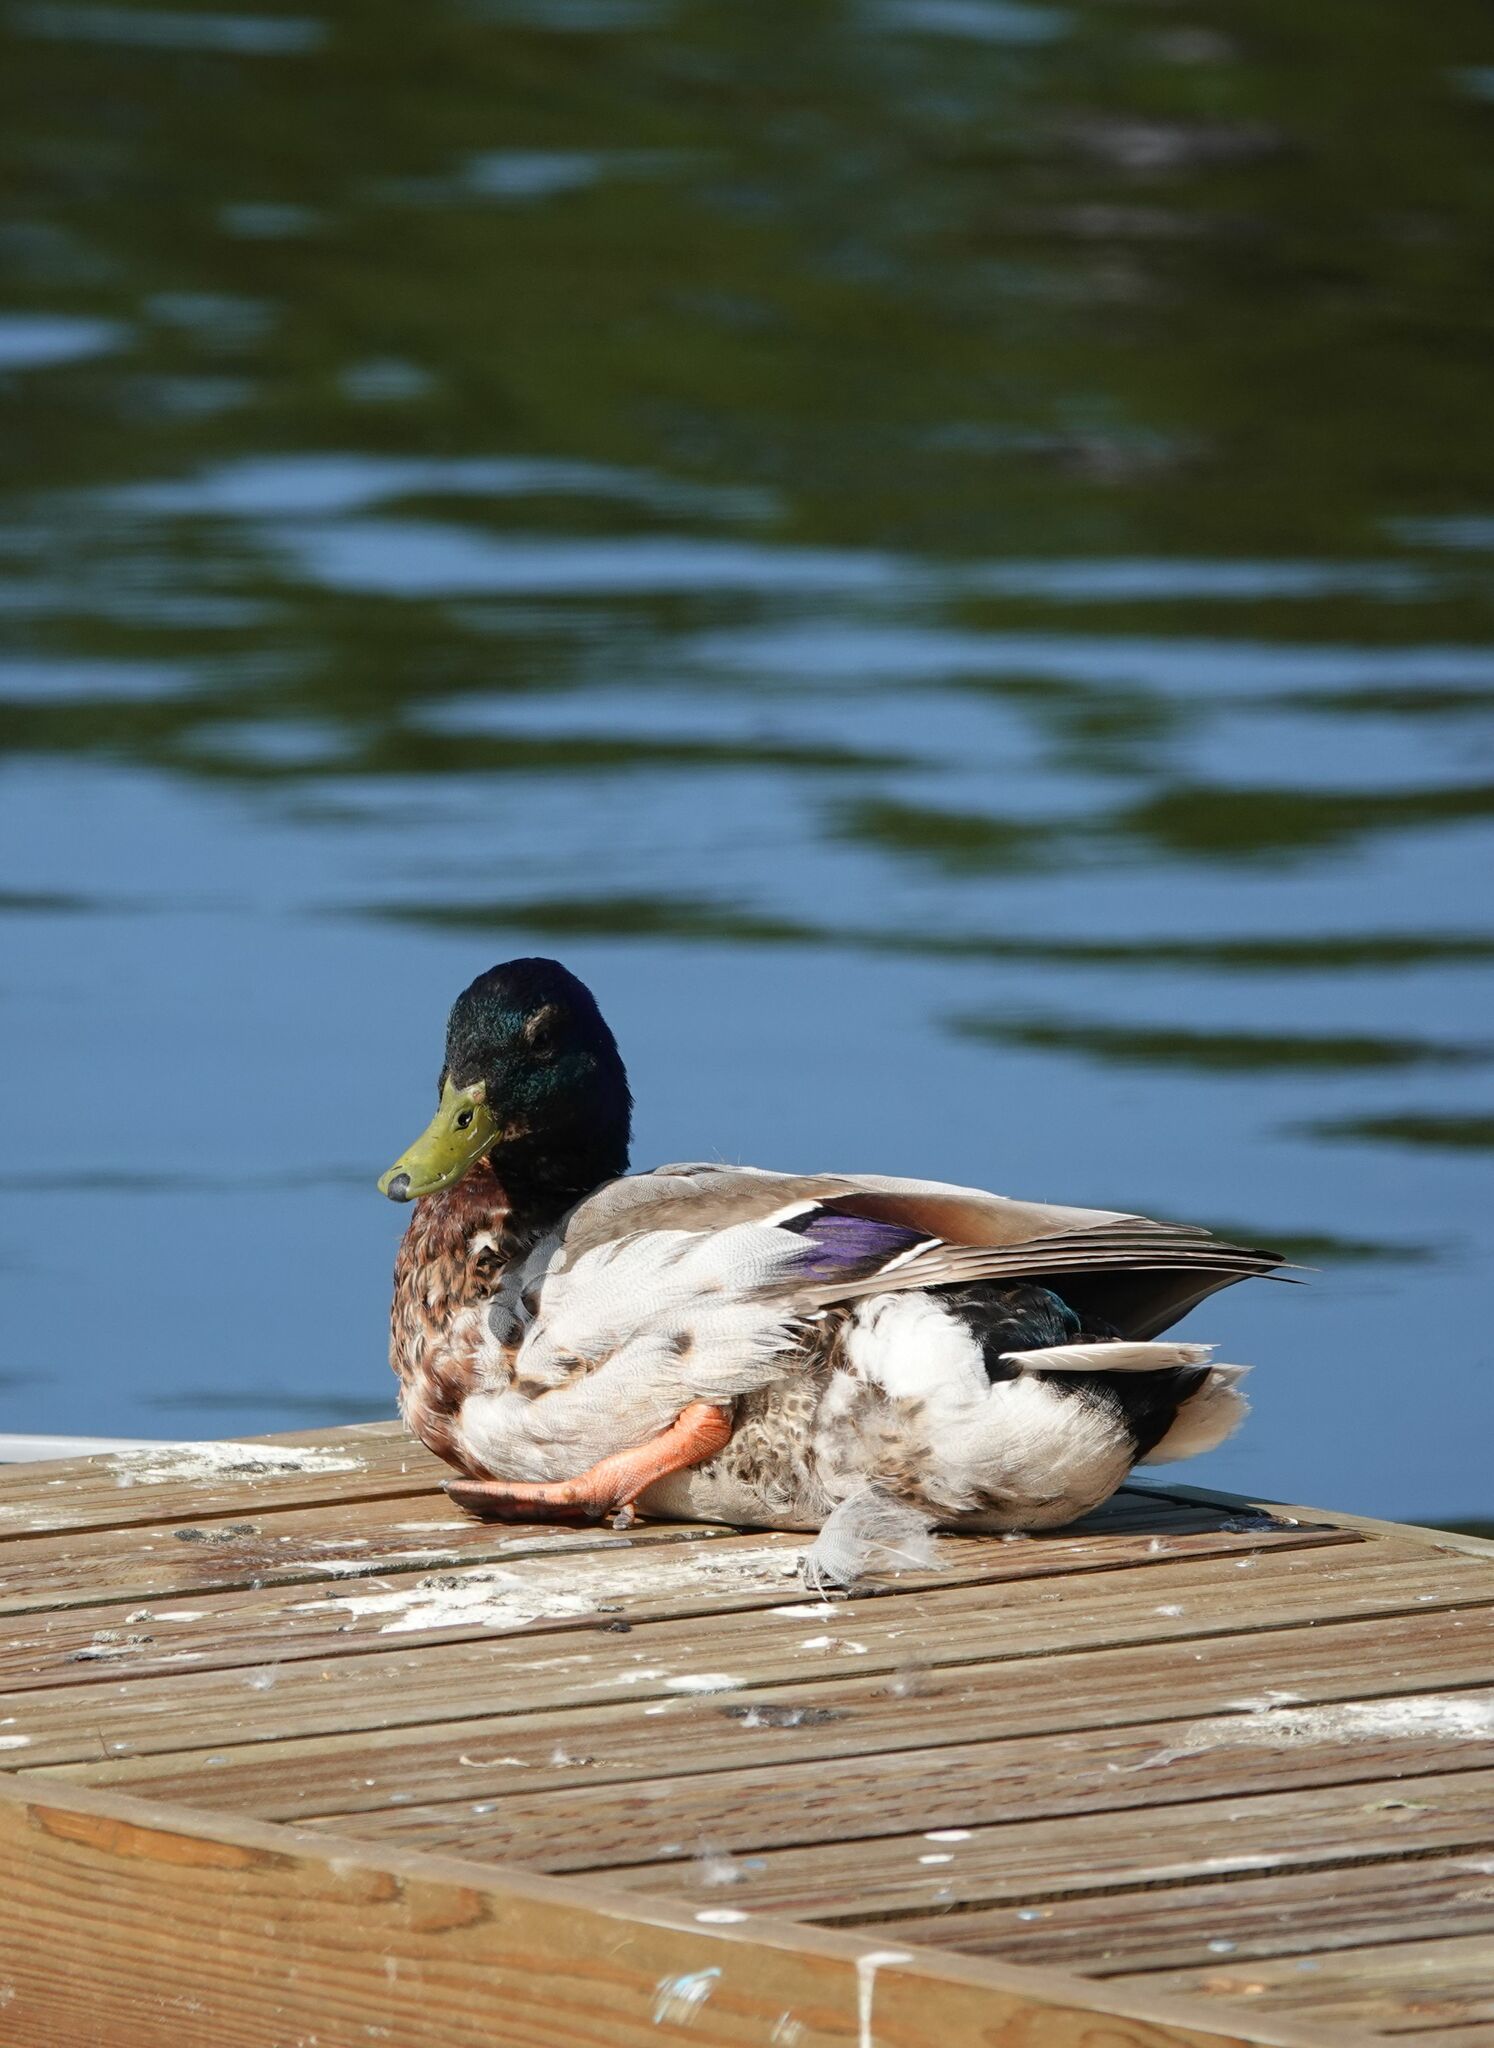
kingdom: Animalia
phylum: Chordata
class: Aves
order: Anseriformes
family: Anatidae
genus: Anas
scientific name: Anas platyrhynchos
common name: Mallard
